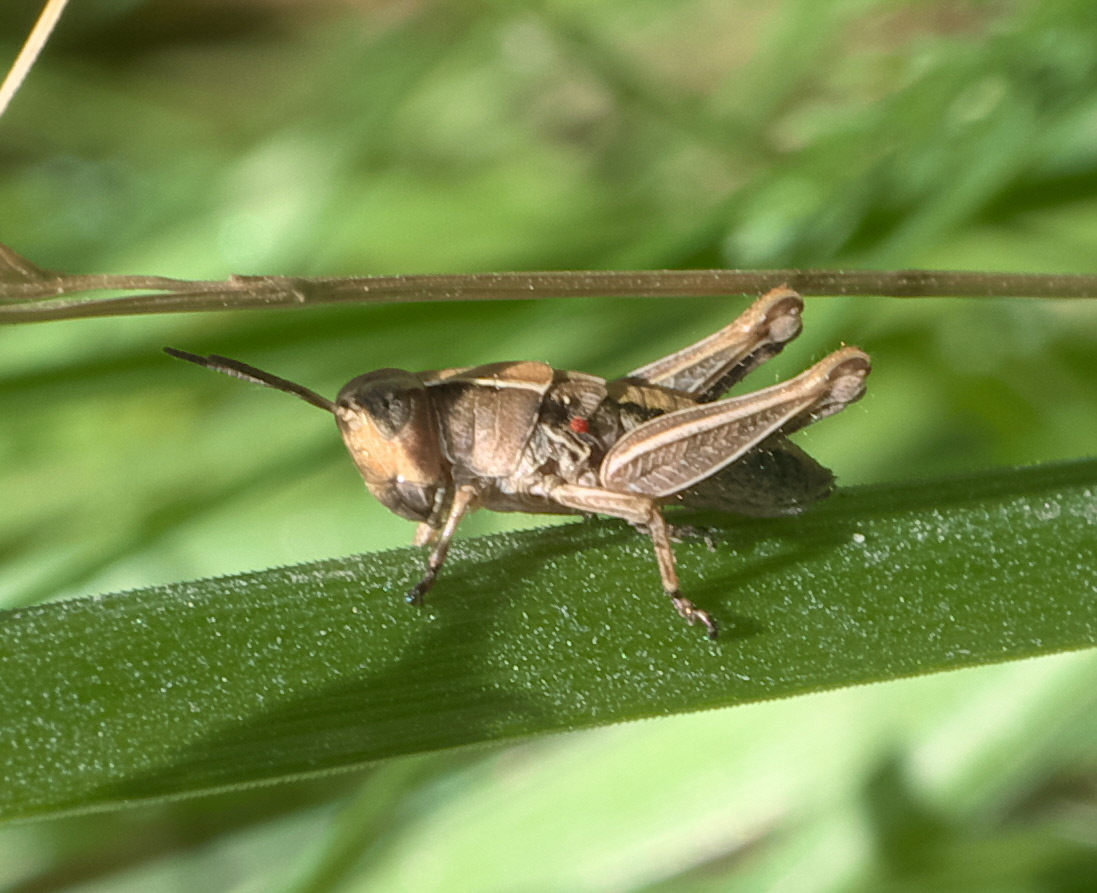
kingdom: Animalia
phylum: Arthropoda
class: Insecta
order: Orthoptera
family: Acrididae
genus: Phaulacridium
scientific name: Phaulacridium marginale
